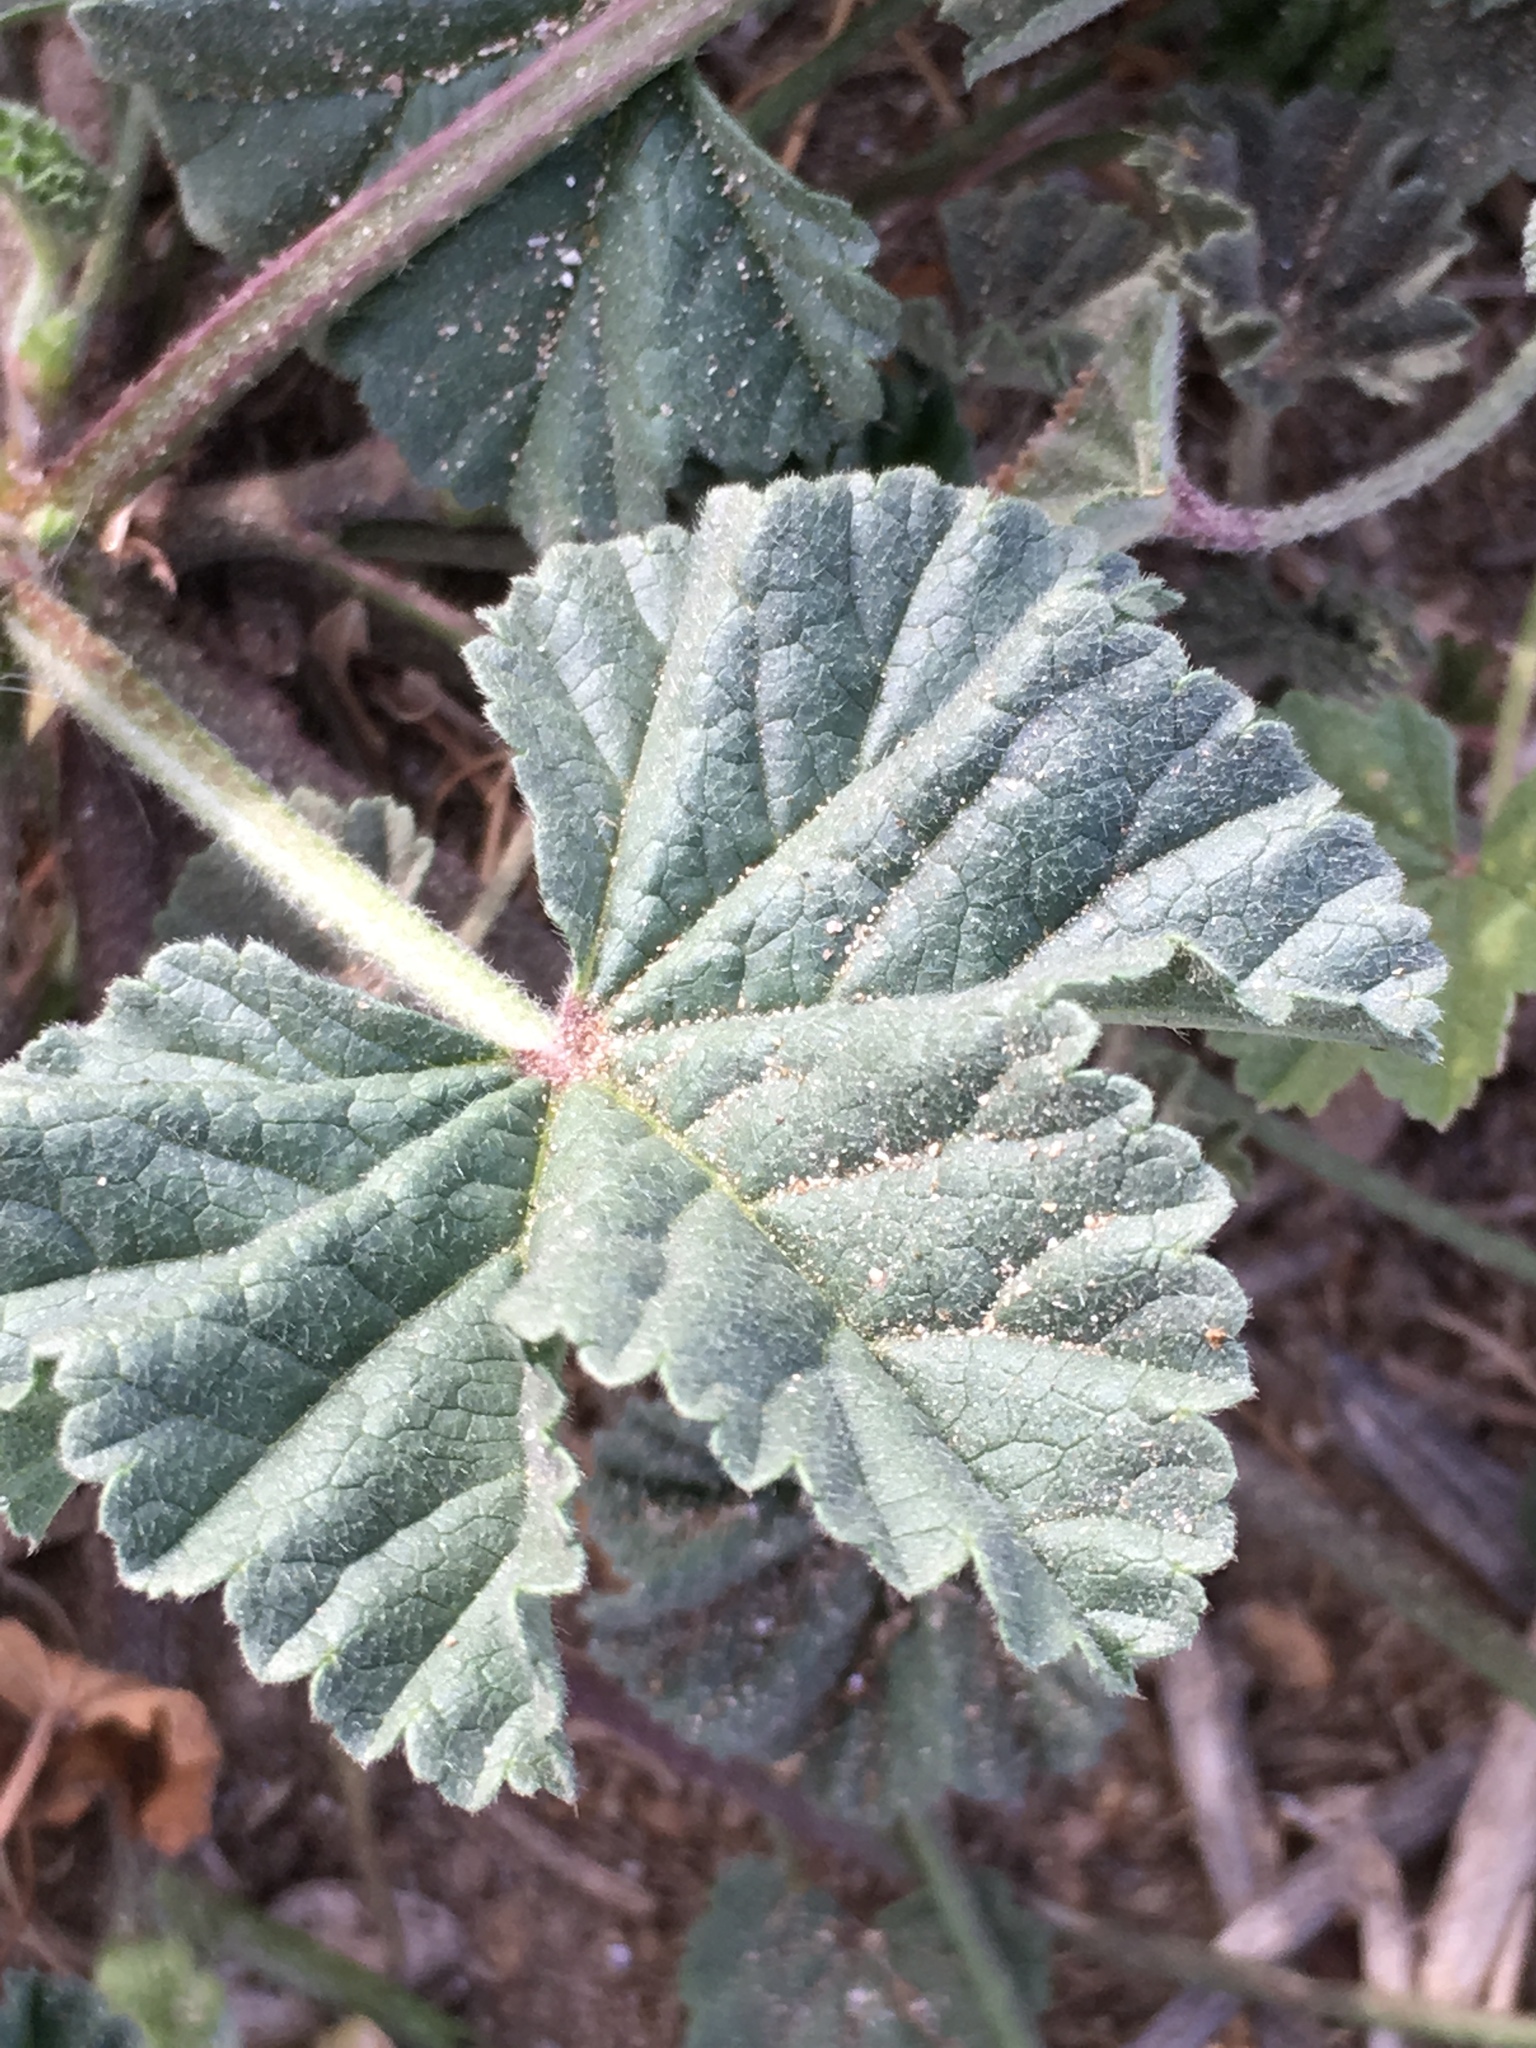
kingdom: Plantae
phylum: Tracheophyta
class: Magnoliopsida
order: Malvales
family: Malvaceae
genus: Malva
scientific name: Malva parviflora
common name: Least mallow
